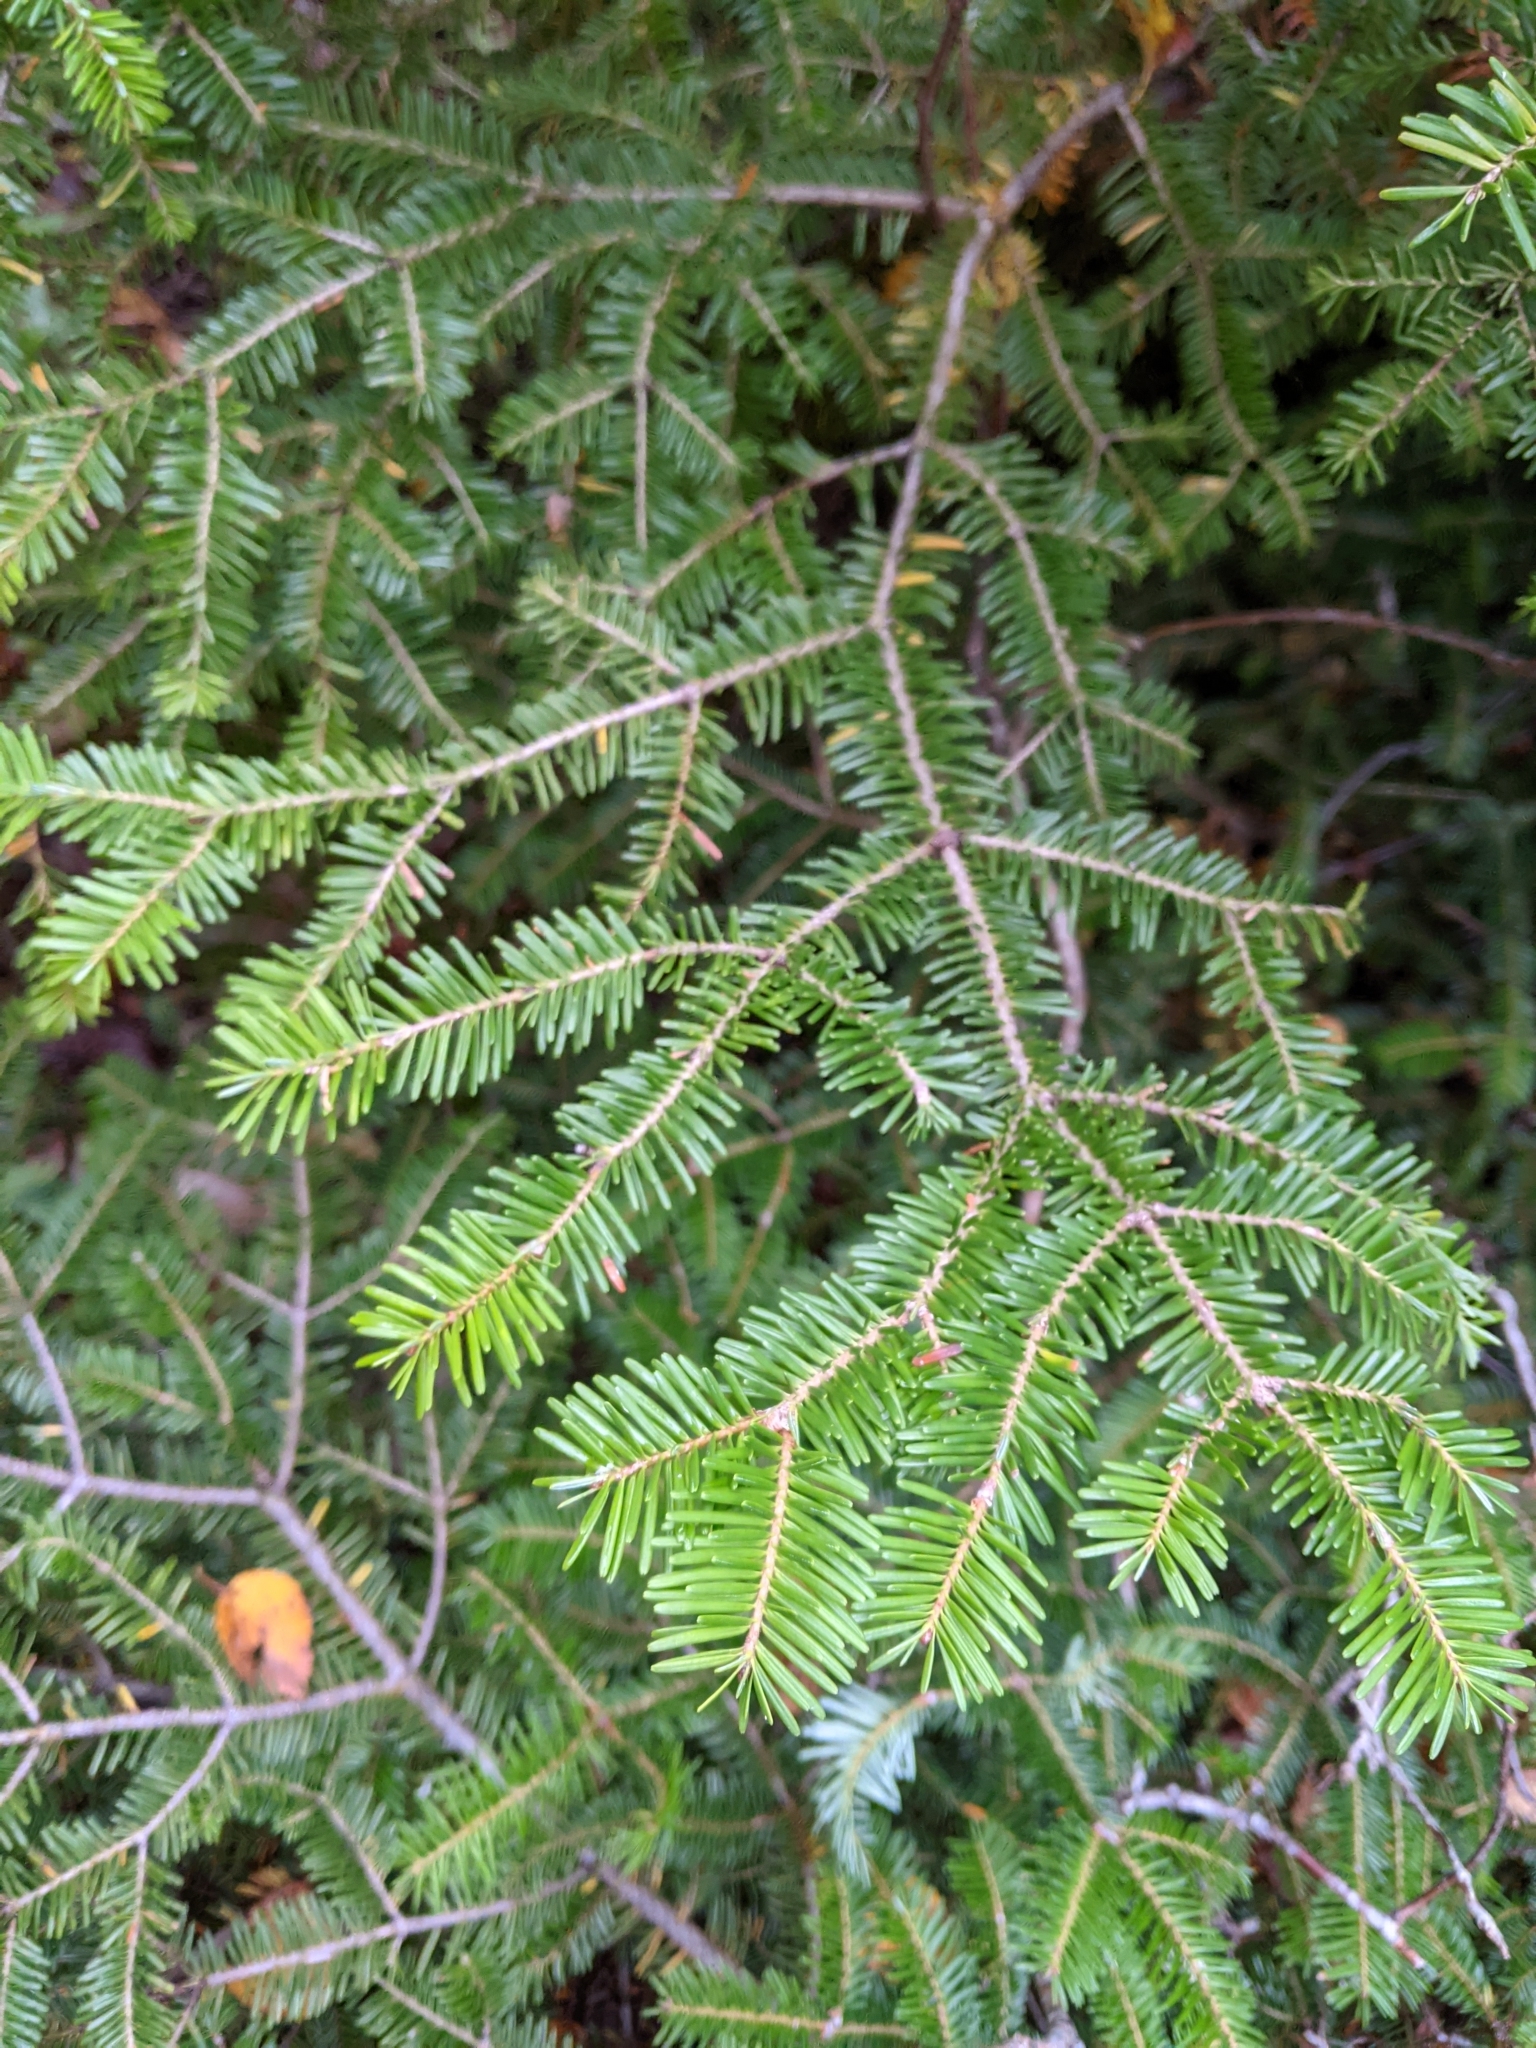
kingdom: Plantae
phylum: Tracheophyta
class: Pinopsida
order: Pinales
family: Pinaceae
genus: Abies
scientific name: Abies balsamea
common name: Balsam fir
